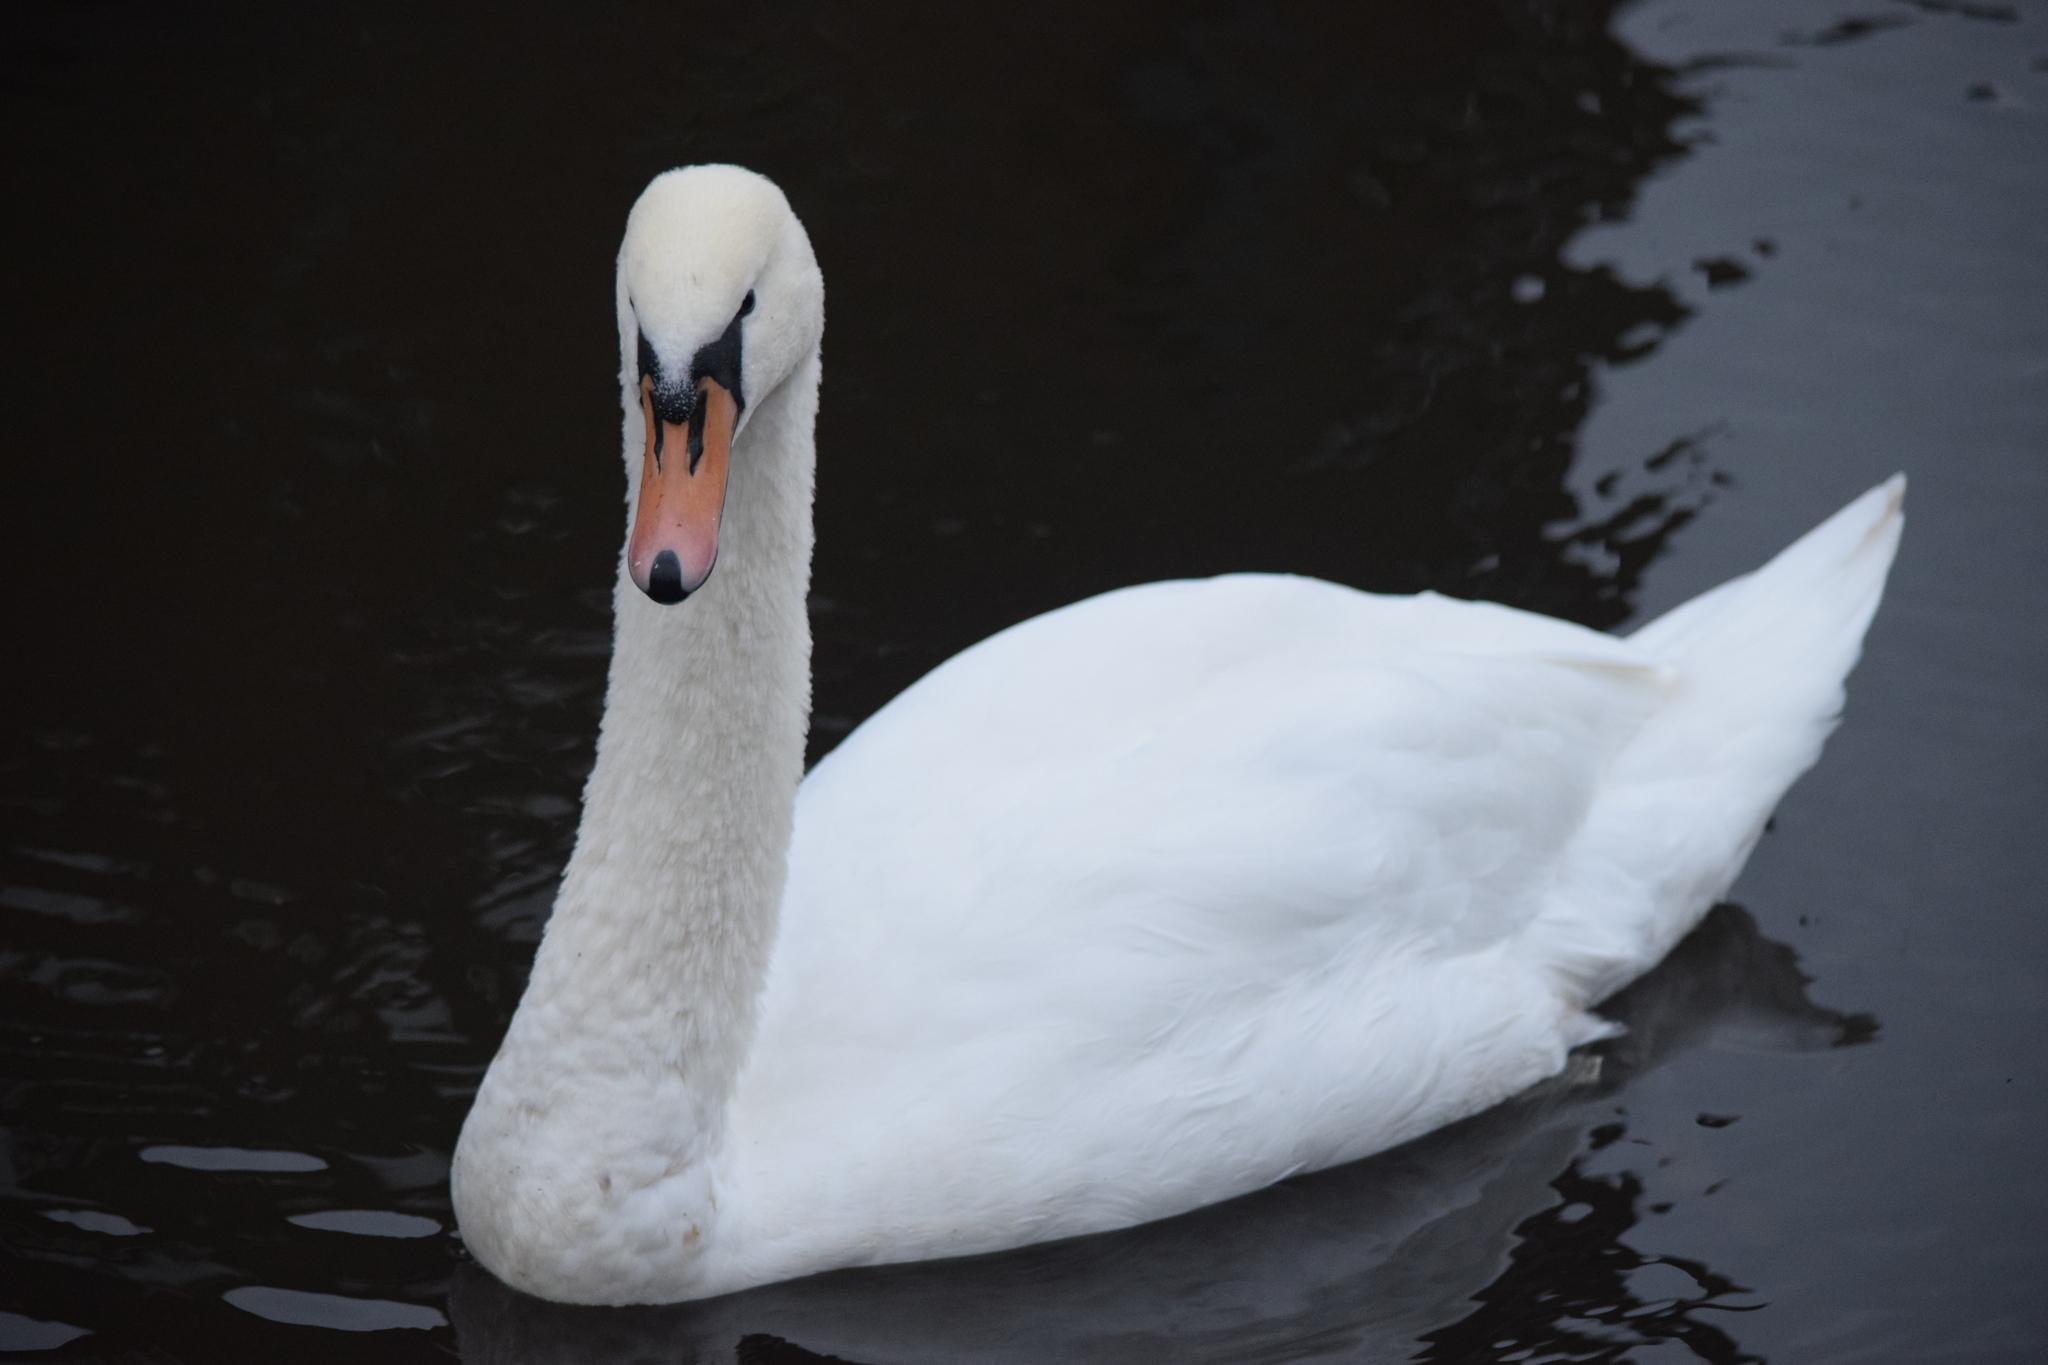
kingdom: Animalia
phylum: Chordata
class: Aves
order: Anseriformes
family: Anatidae
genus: Cygnus
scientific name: Cygnus olor
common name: Mute swan
